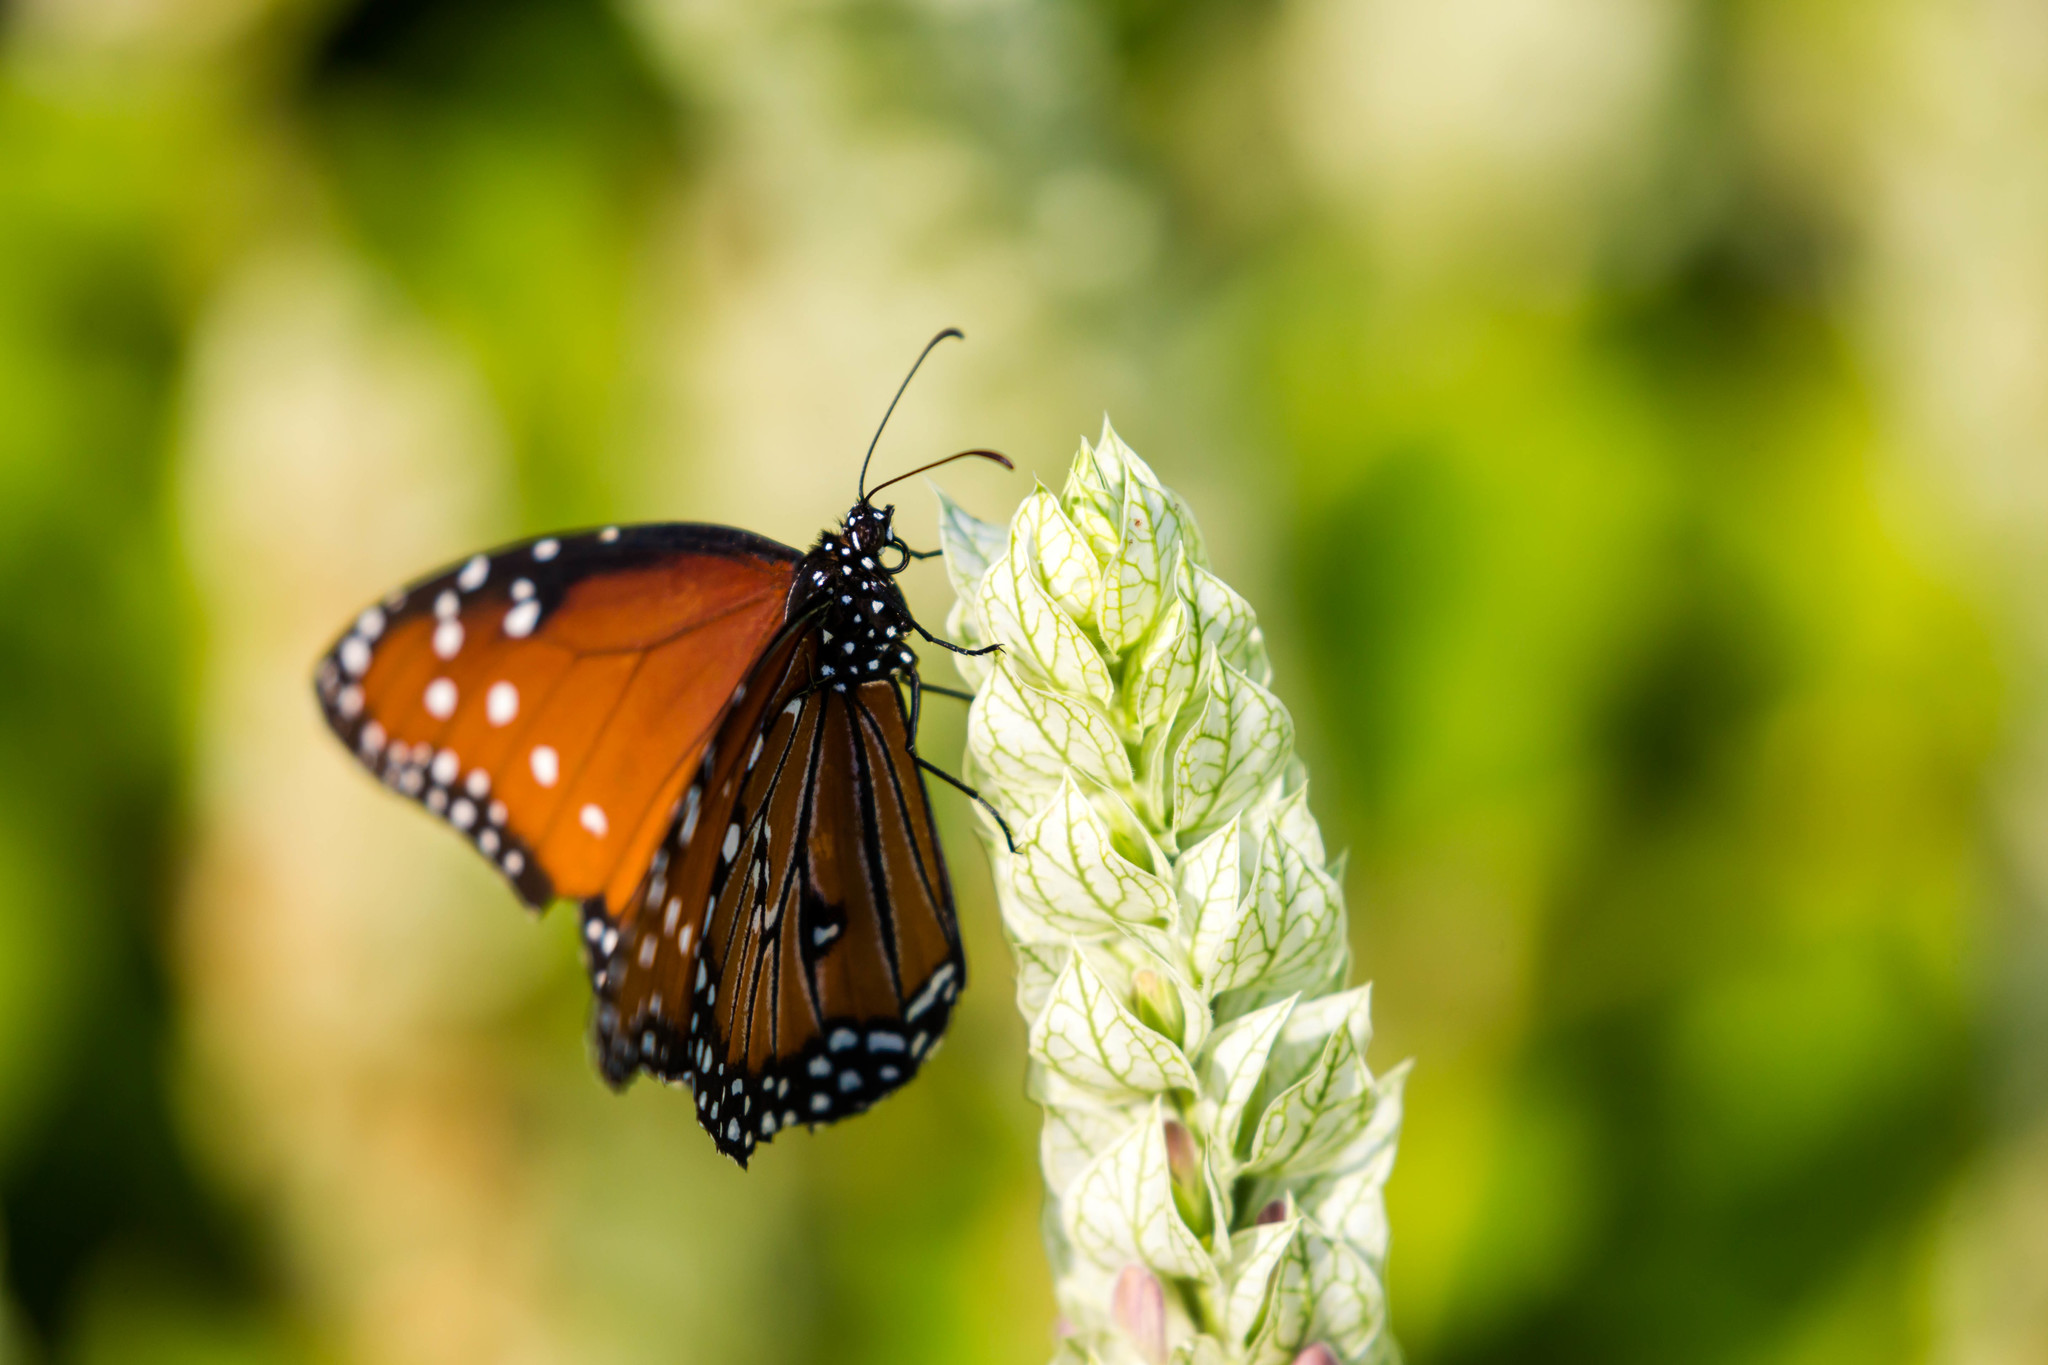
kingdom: Animalia
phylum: Arthropoda
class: Insecta
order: Lepidoptera
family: Nymphalidae
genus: Danaus
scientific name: Danaus gilippus
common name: Queen
